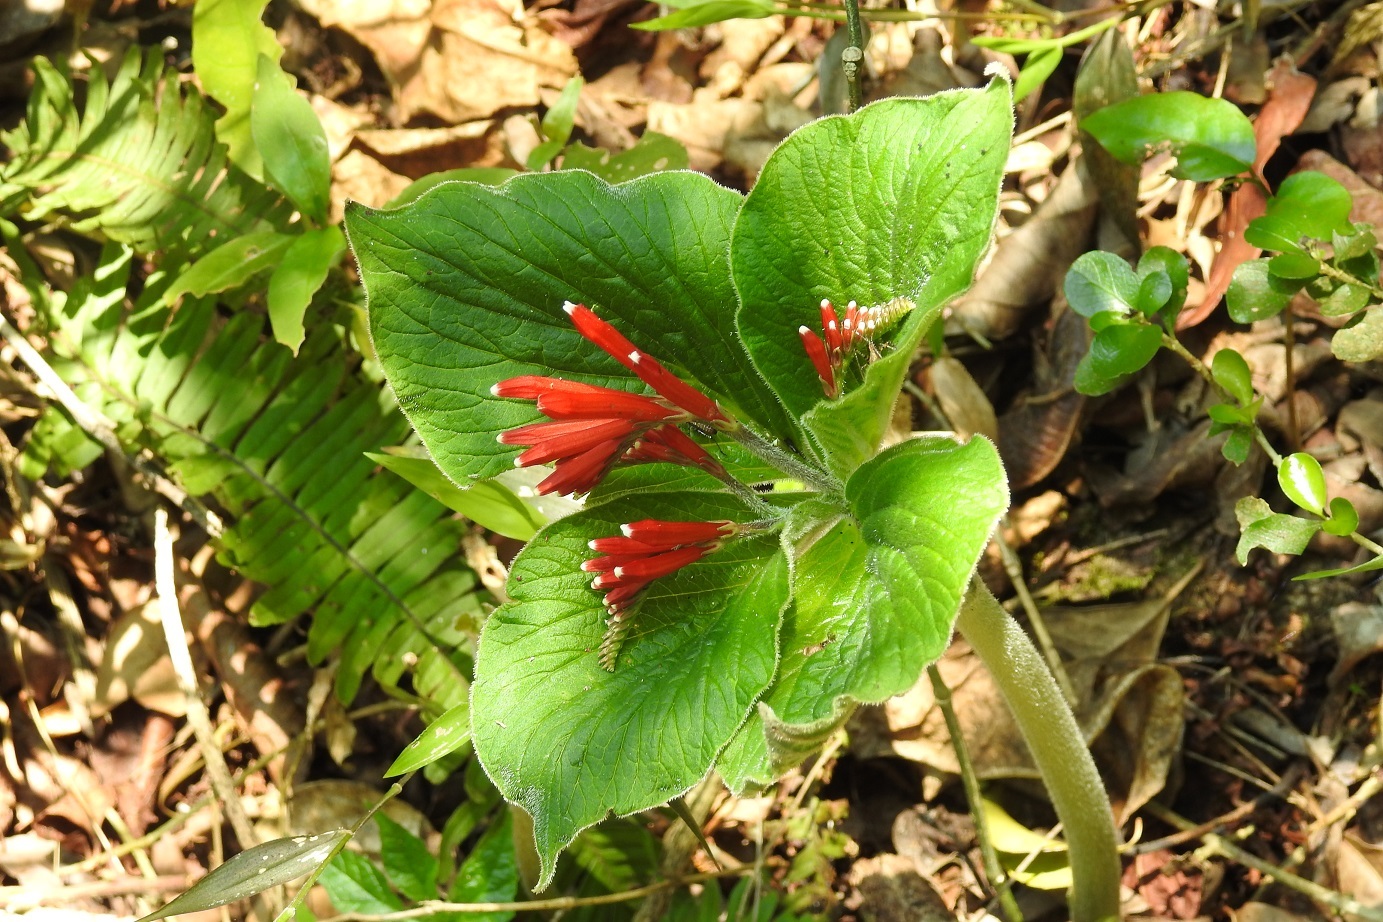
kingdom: Plantae
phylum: Tracheophyta
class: Magnoliopsida
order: Gentianales
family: Loganiaceae
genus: Spigelia
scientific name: Spigelia splendens
